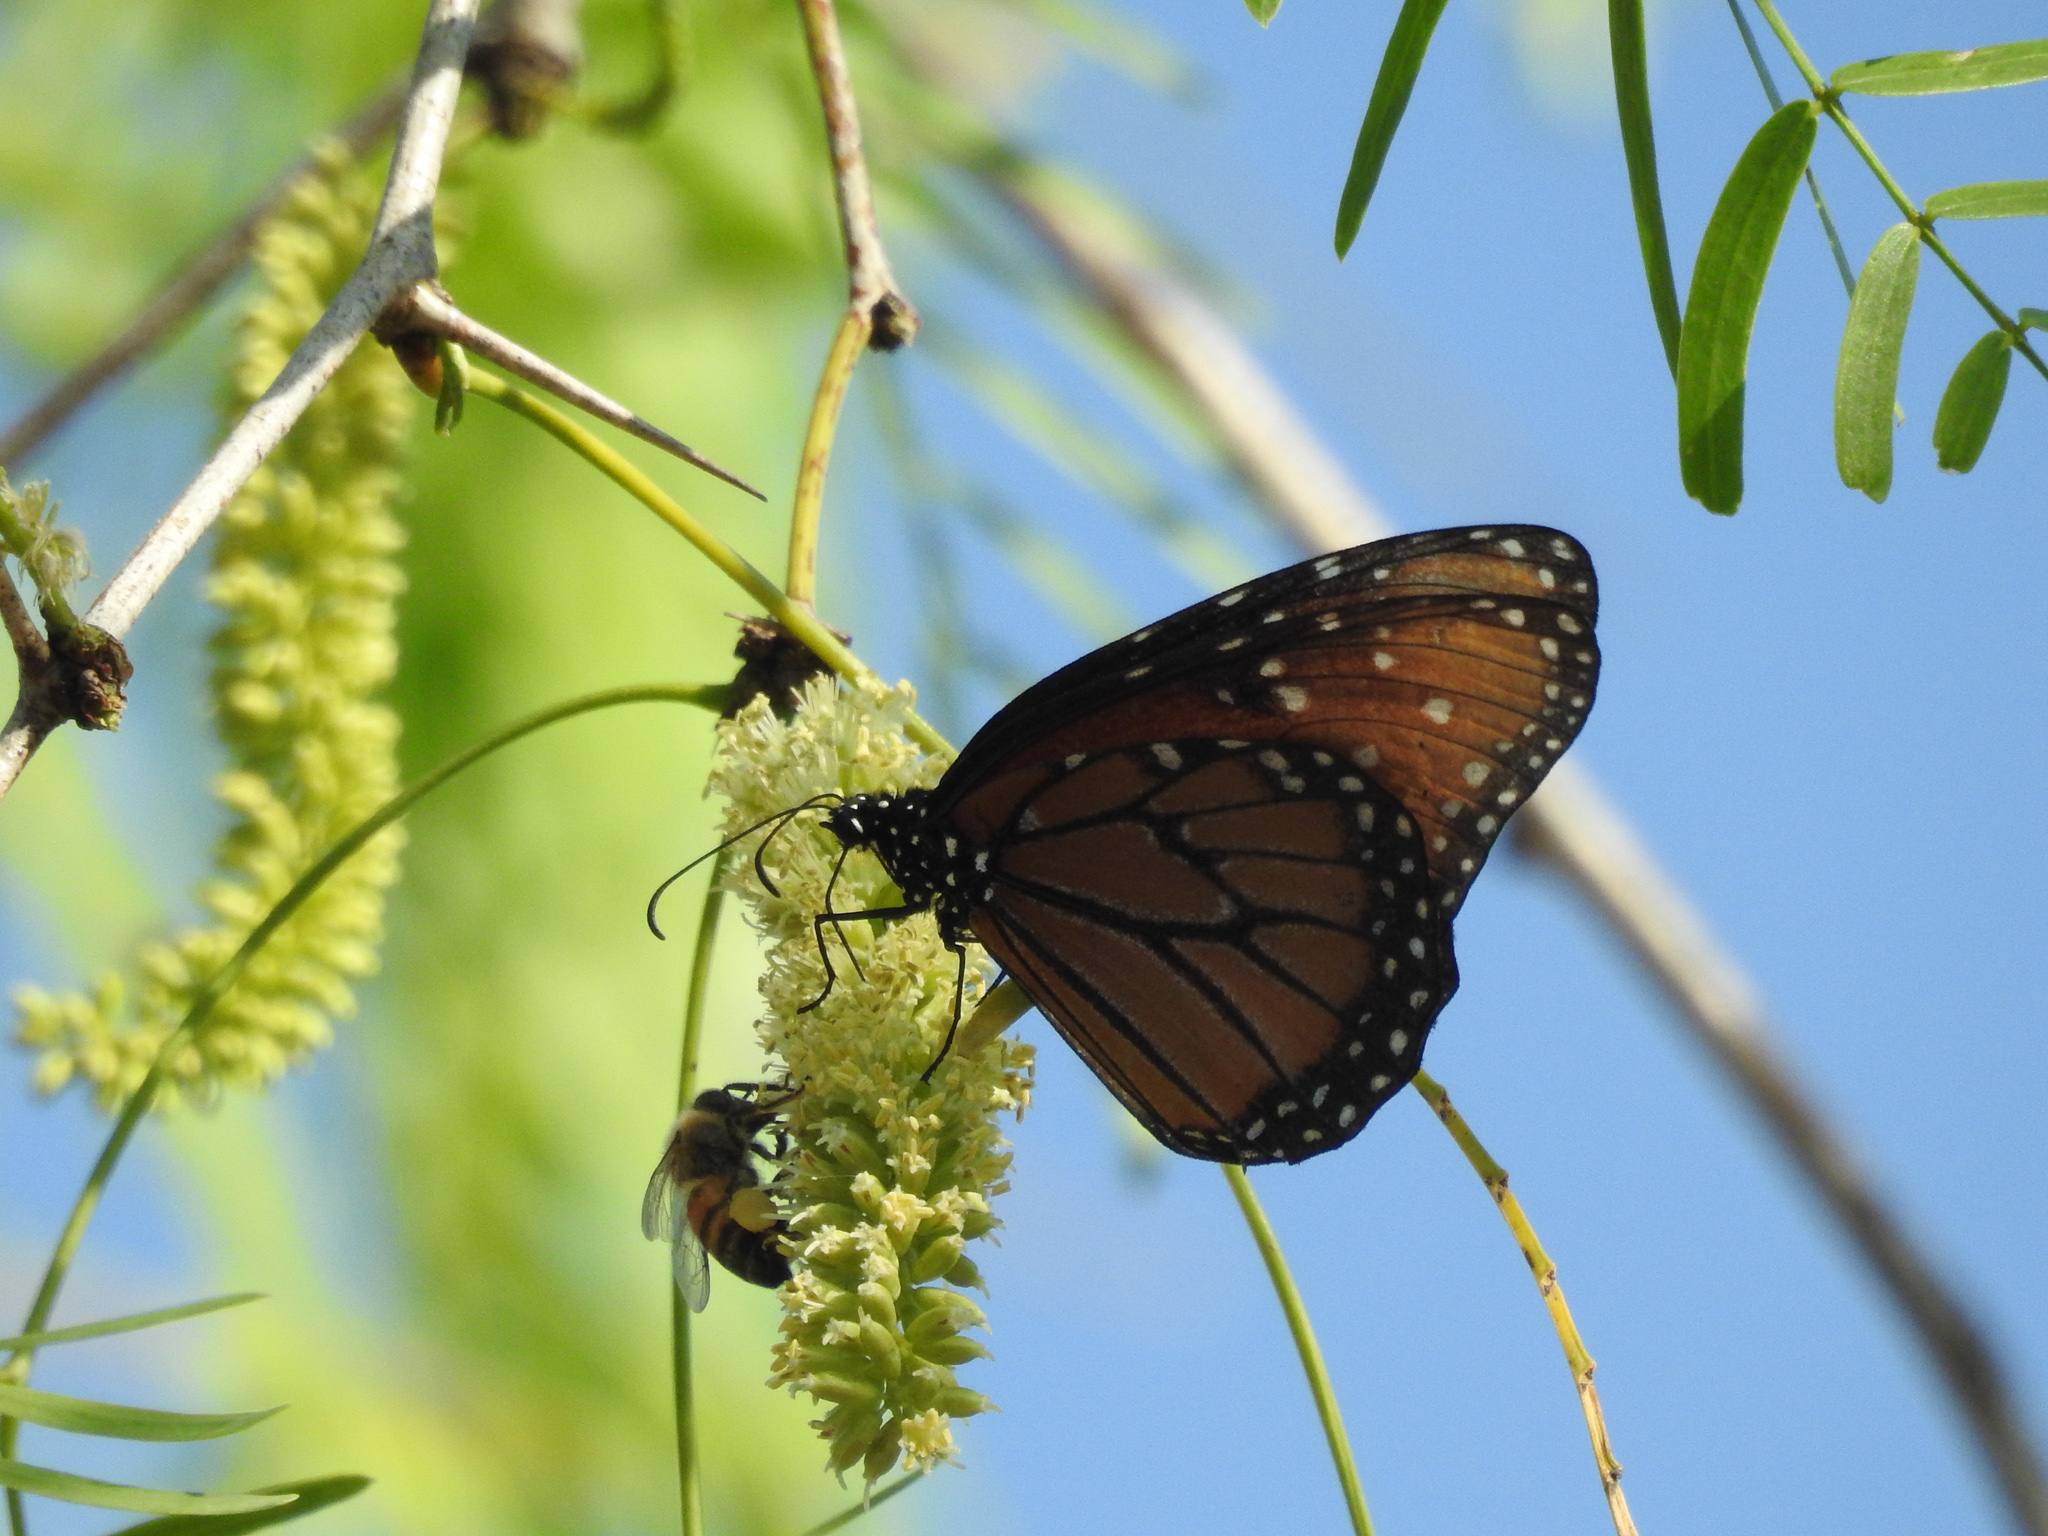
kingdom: Animalia
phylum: Arthropoda
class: Insecta
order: Lepidoptera
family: Nymphalidae
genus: Danaus
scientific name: Danaus gilippus
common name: Queen
